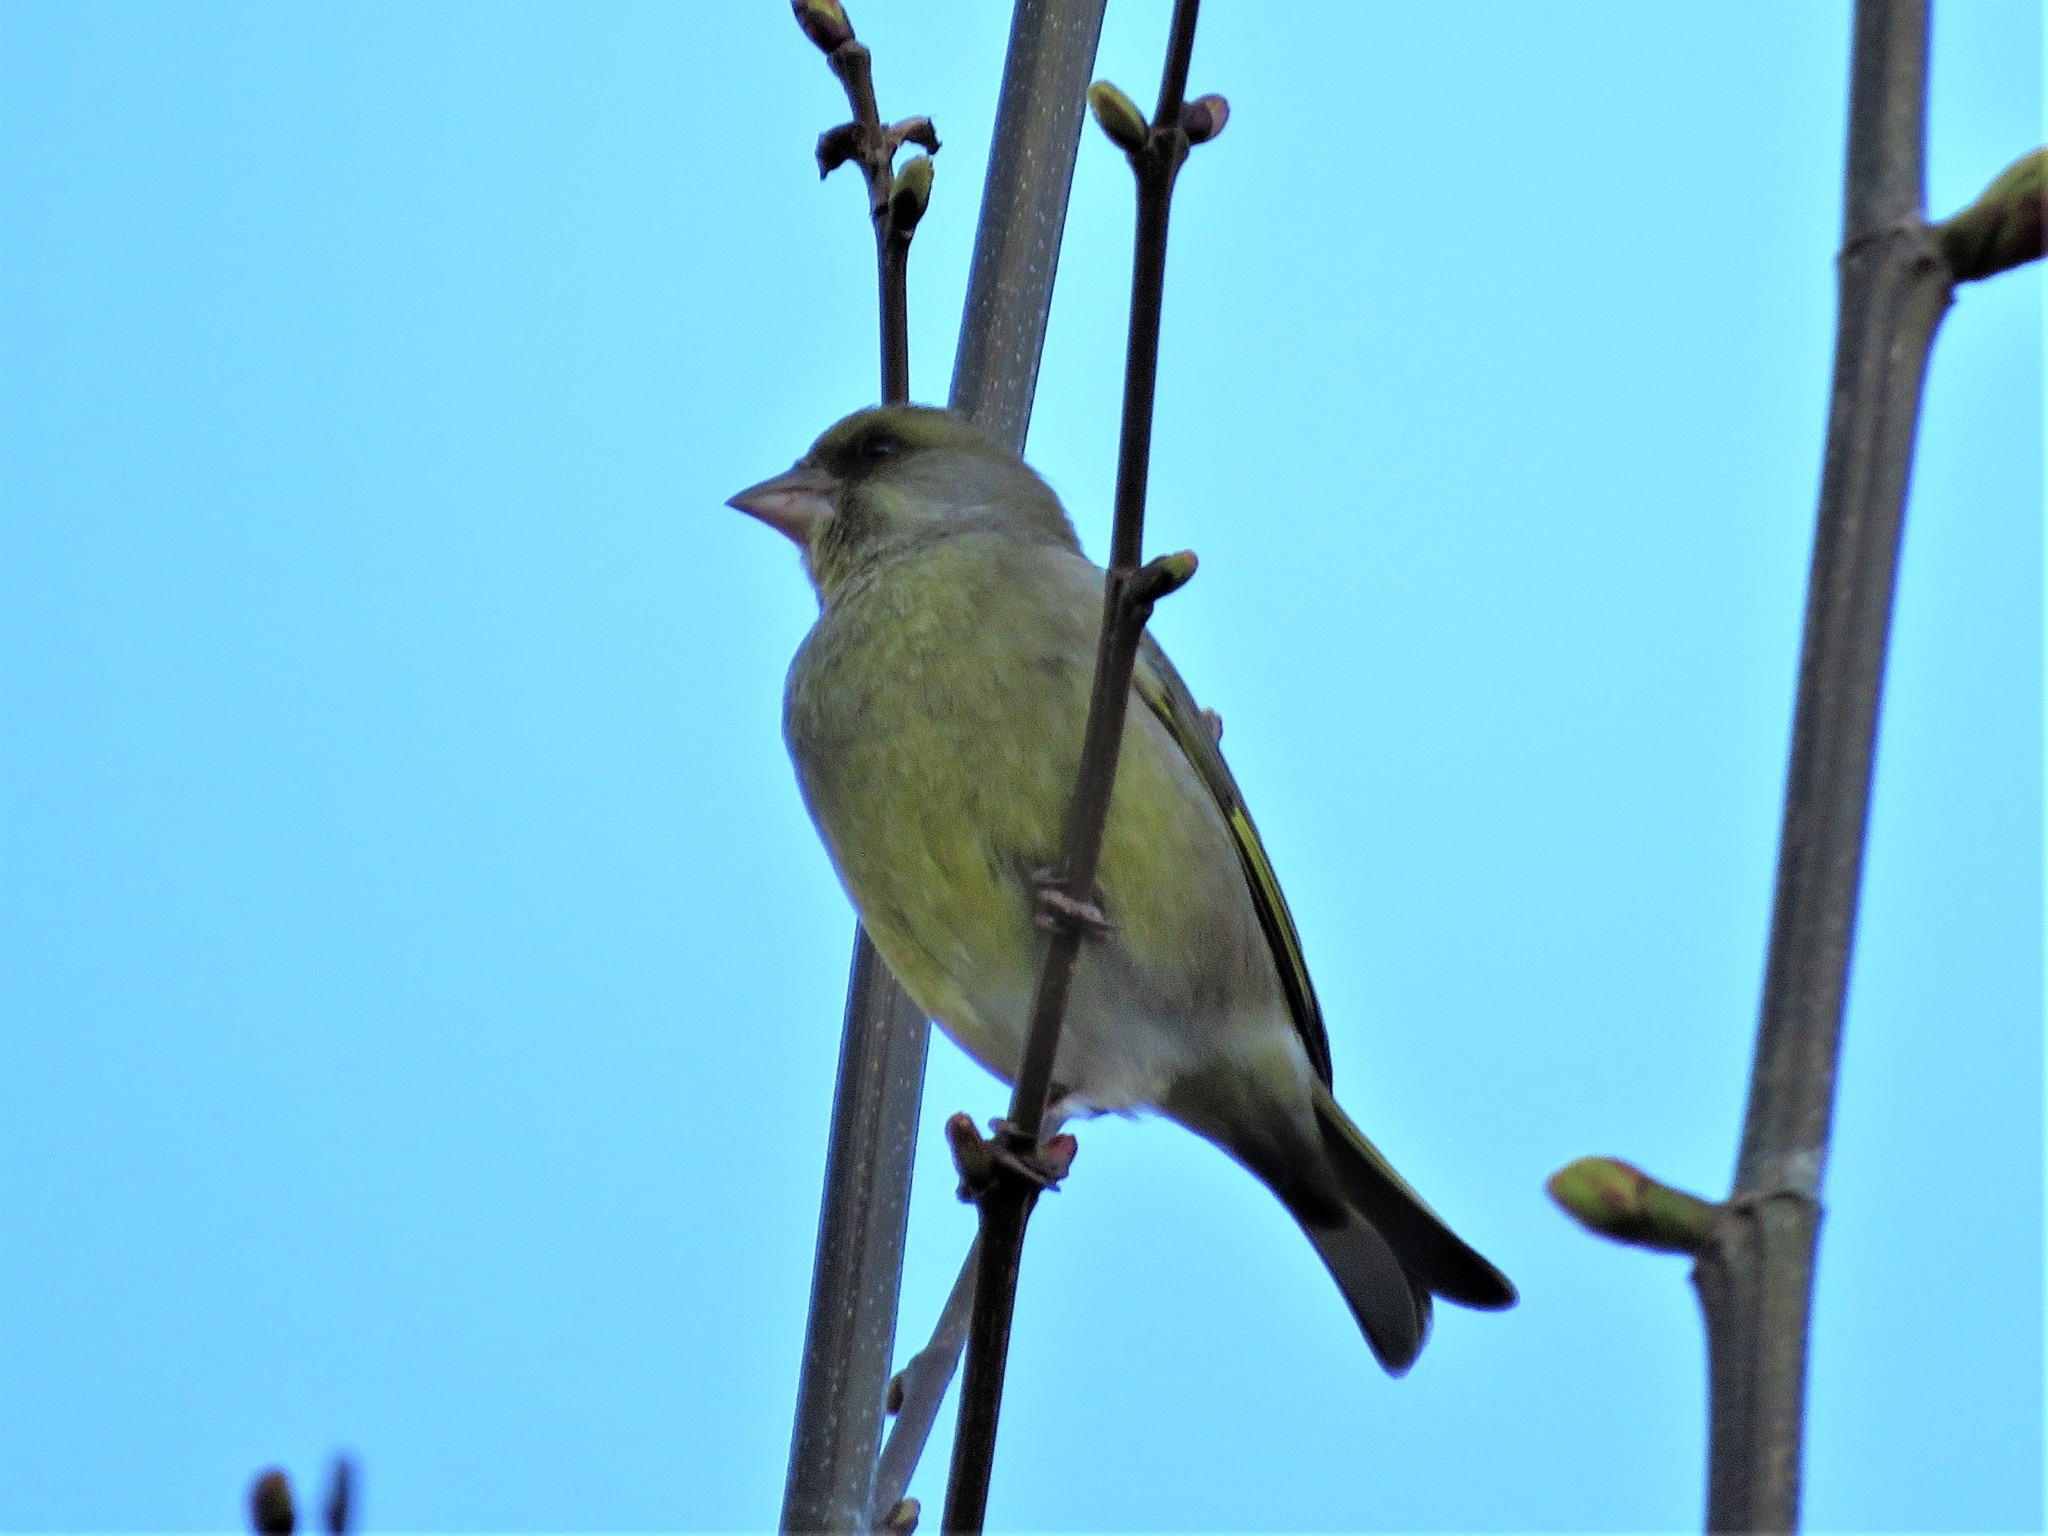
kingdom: Plantae
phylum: Tracheophyta
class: Liliopsida
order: Poales
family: Poaceae
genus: Chloris
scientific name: Chloris chloris
